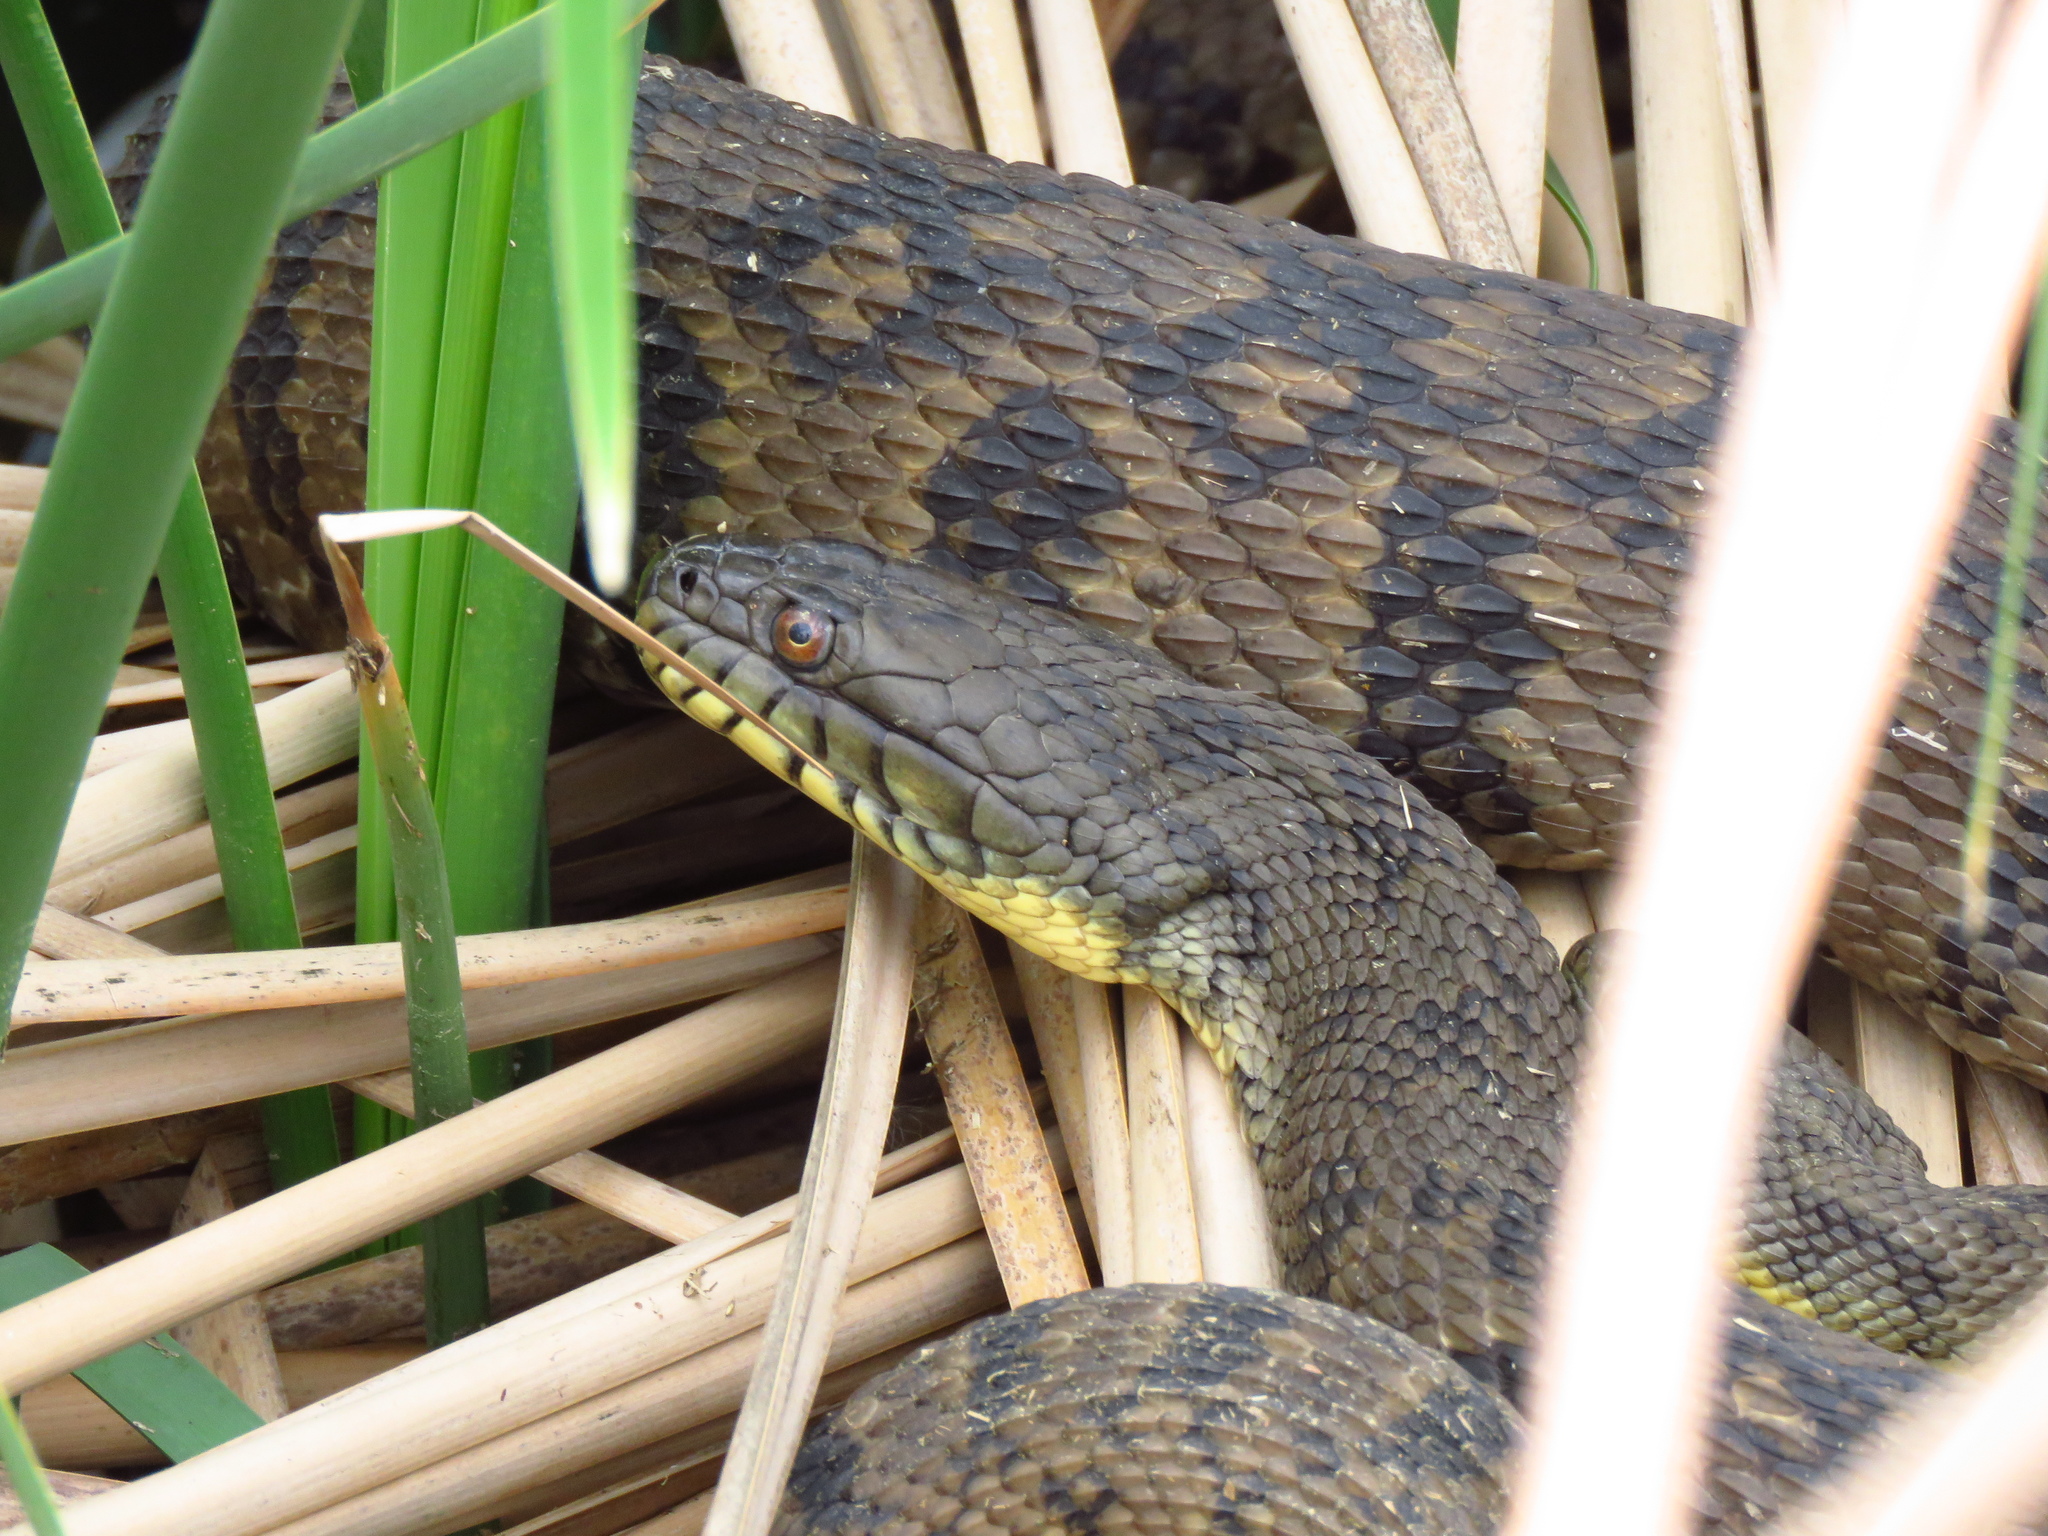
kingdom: Animalia
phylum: Chordata
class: Squamata
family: Colubridae
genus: Nerodia
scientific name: Nerodia rhombifer
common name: Diamondback water snake
